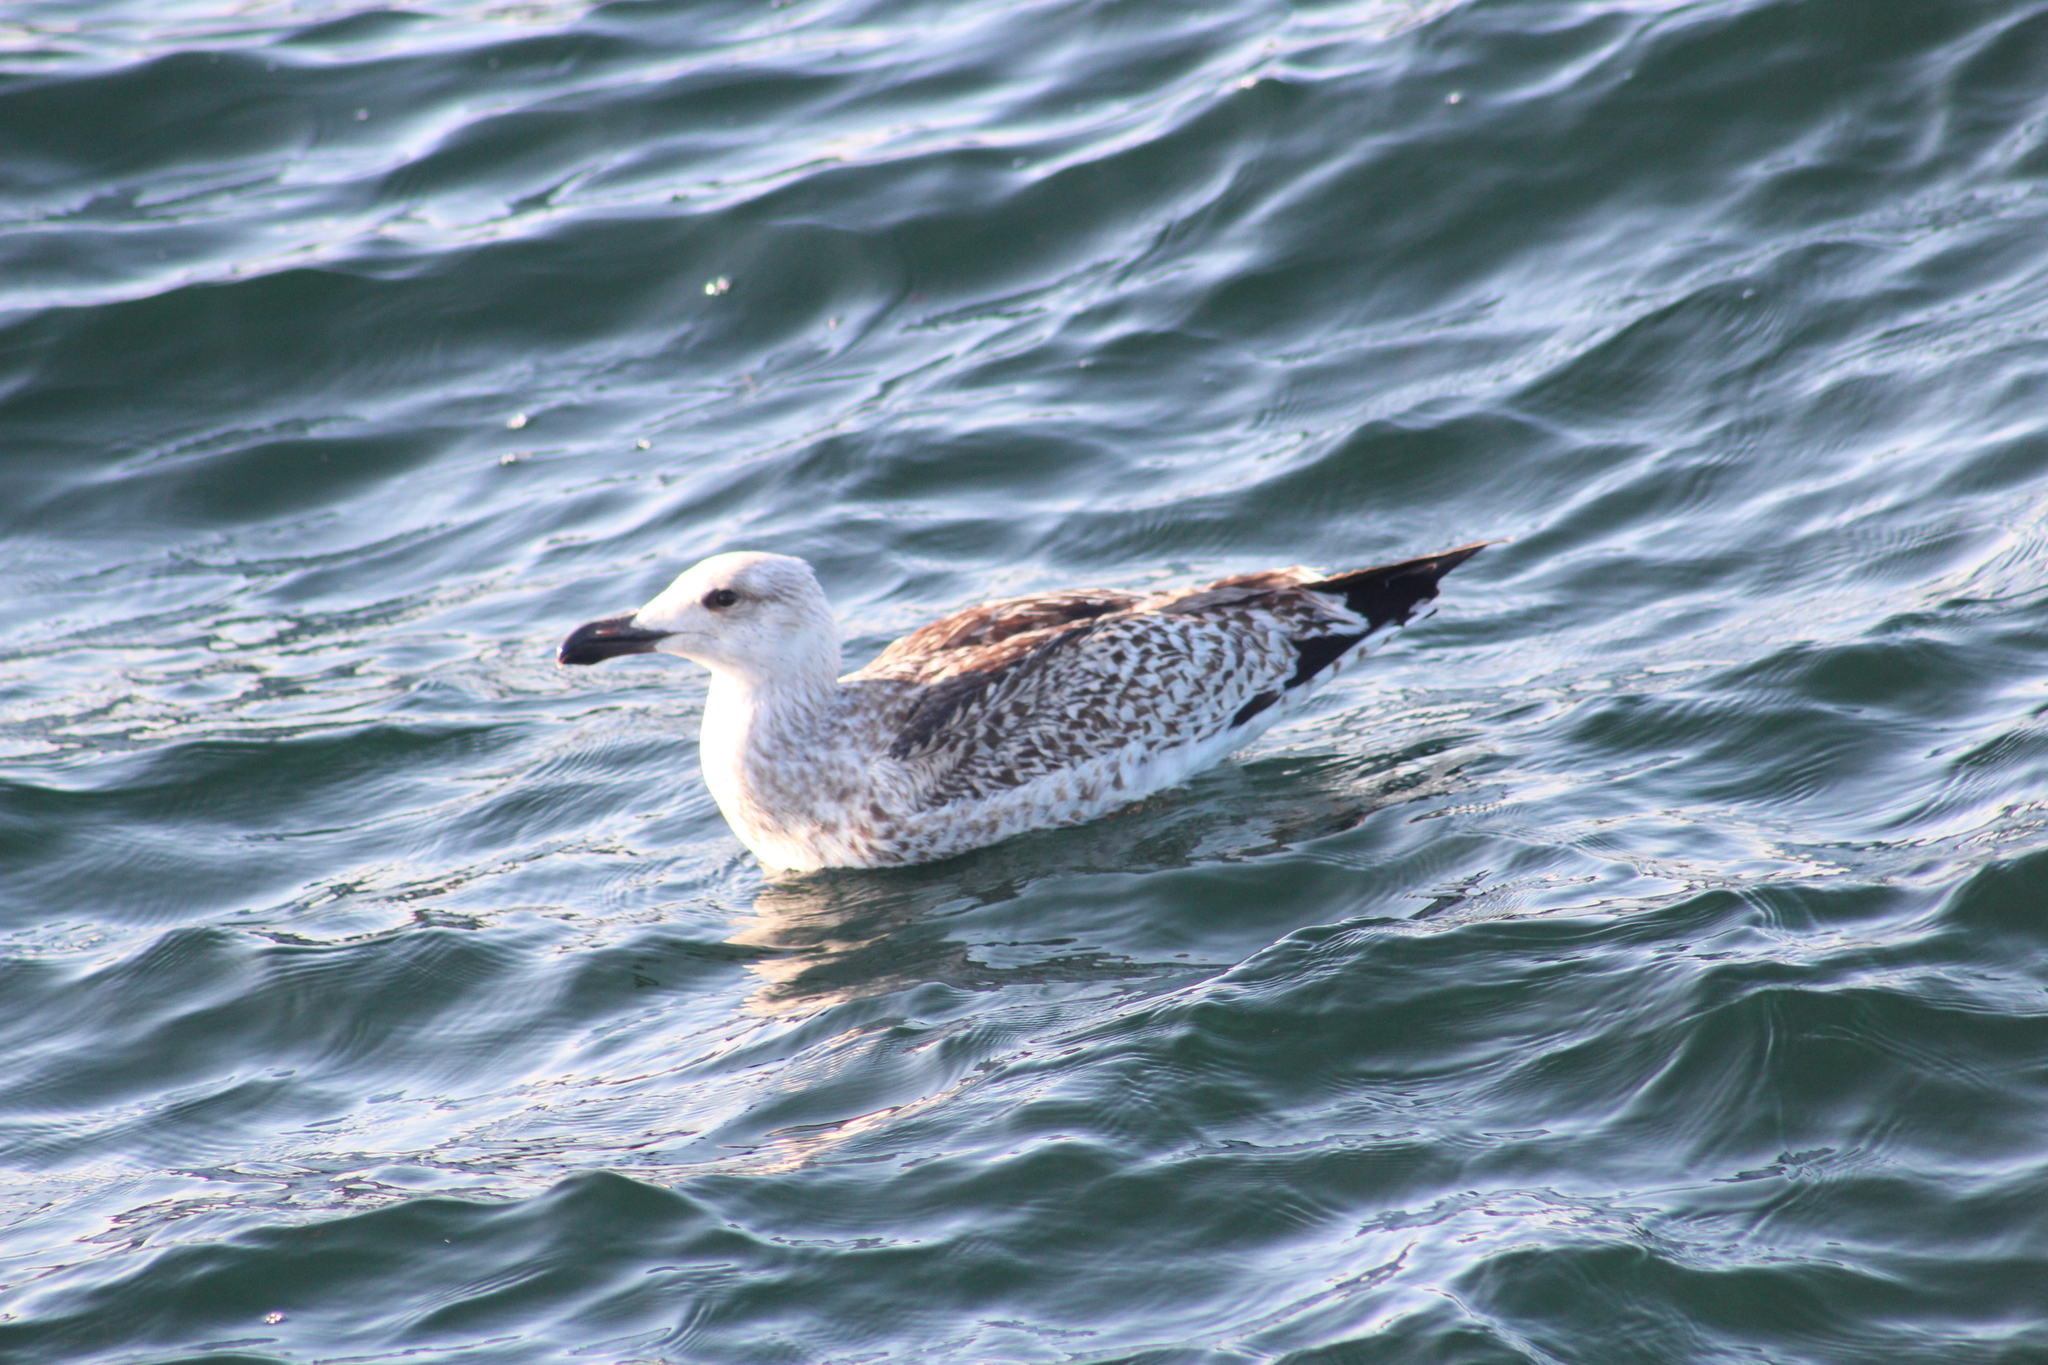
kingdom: Animalia
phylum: Chordata
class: Aves
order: Charadriiformes
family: Laridae
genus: Larus
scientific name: Larus marinus
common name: Great black-backed gull
